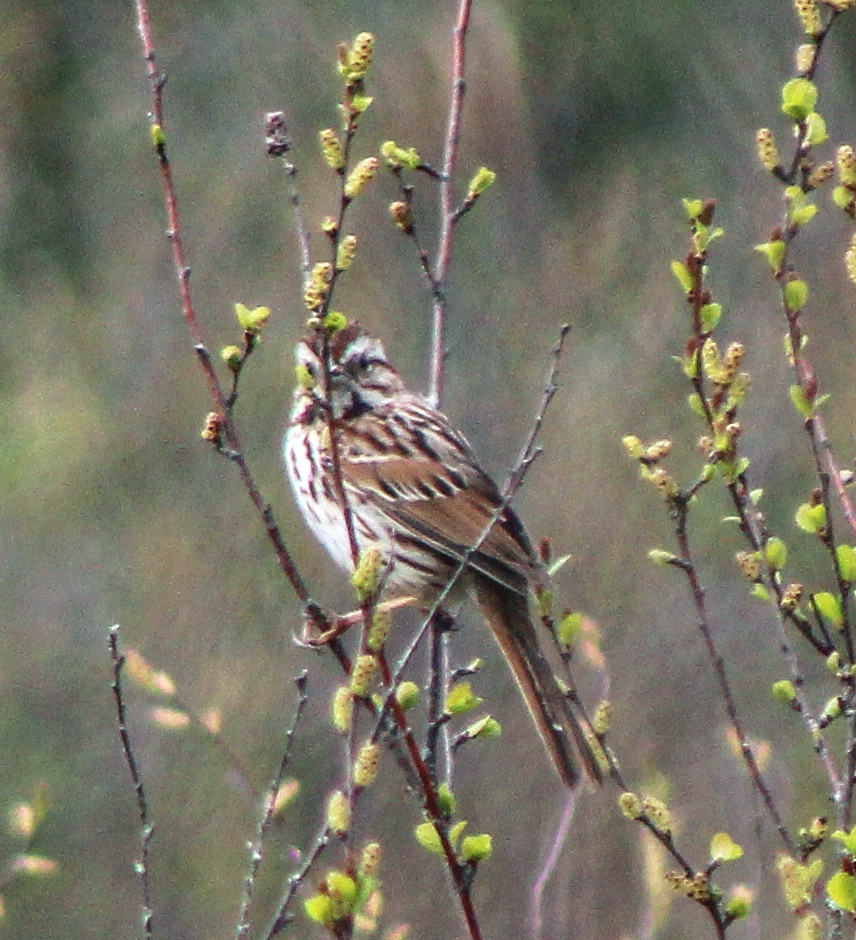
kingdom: Animalia
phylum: Chordata
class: Aves
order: Passeriformes
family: Passerellidae
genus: Melospiza
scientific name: Melospiza melodia
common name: Song sparrow
